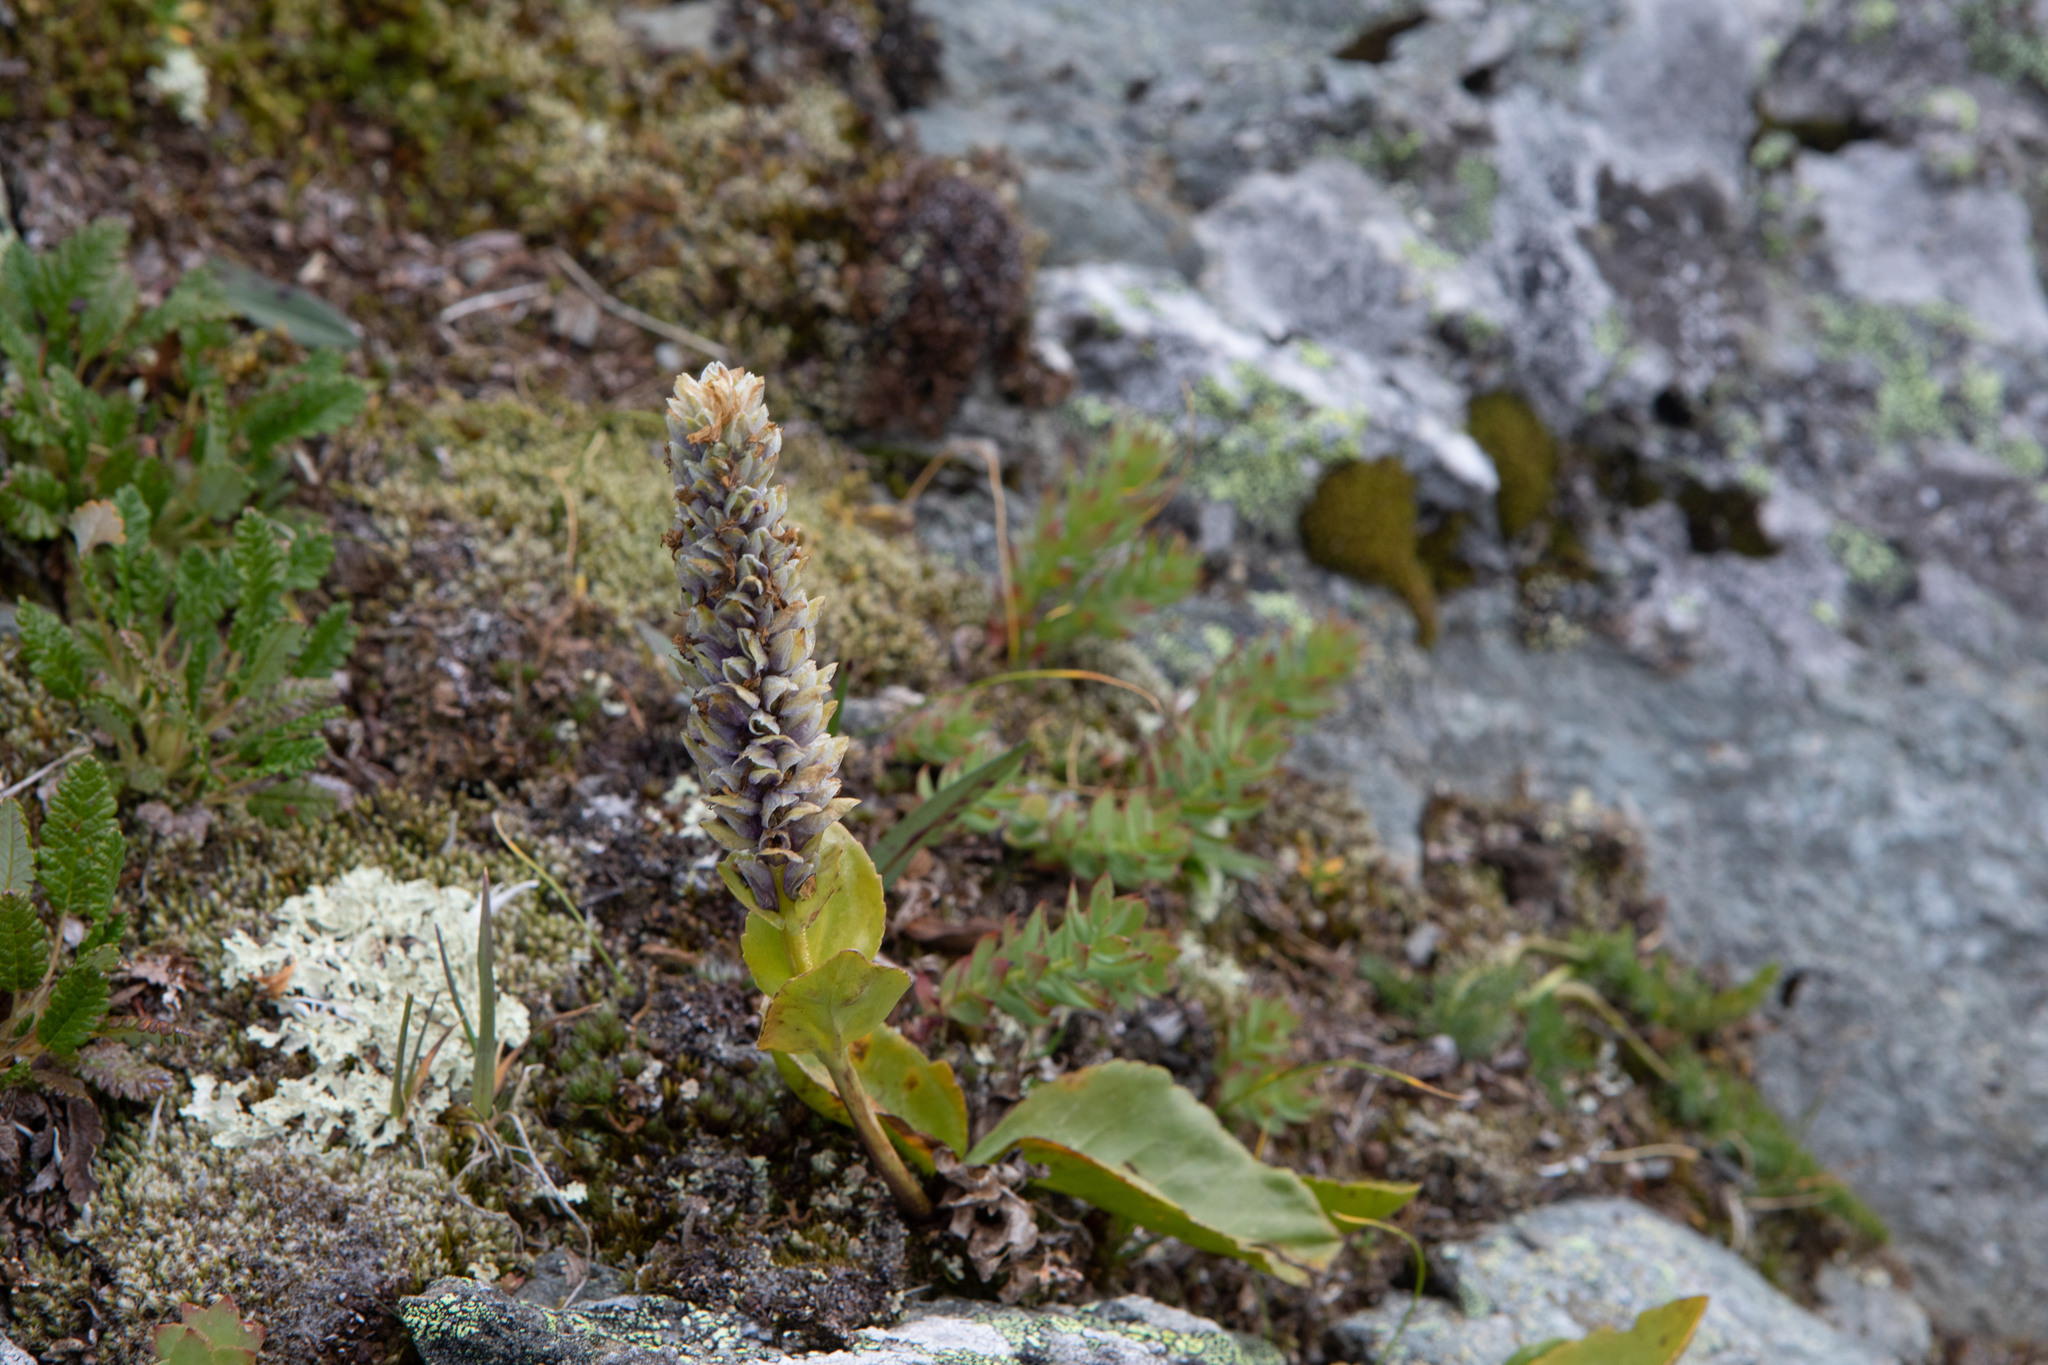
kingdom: Plantae
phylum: Tracheophyta
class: Magnoliopsida
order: Lamiales
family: Plantaginaceae
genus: Lagotis
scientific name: Lagotis glauca
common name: Glaucous weaselsnout
